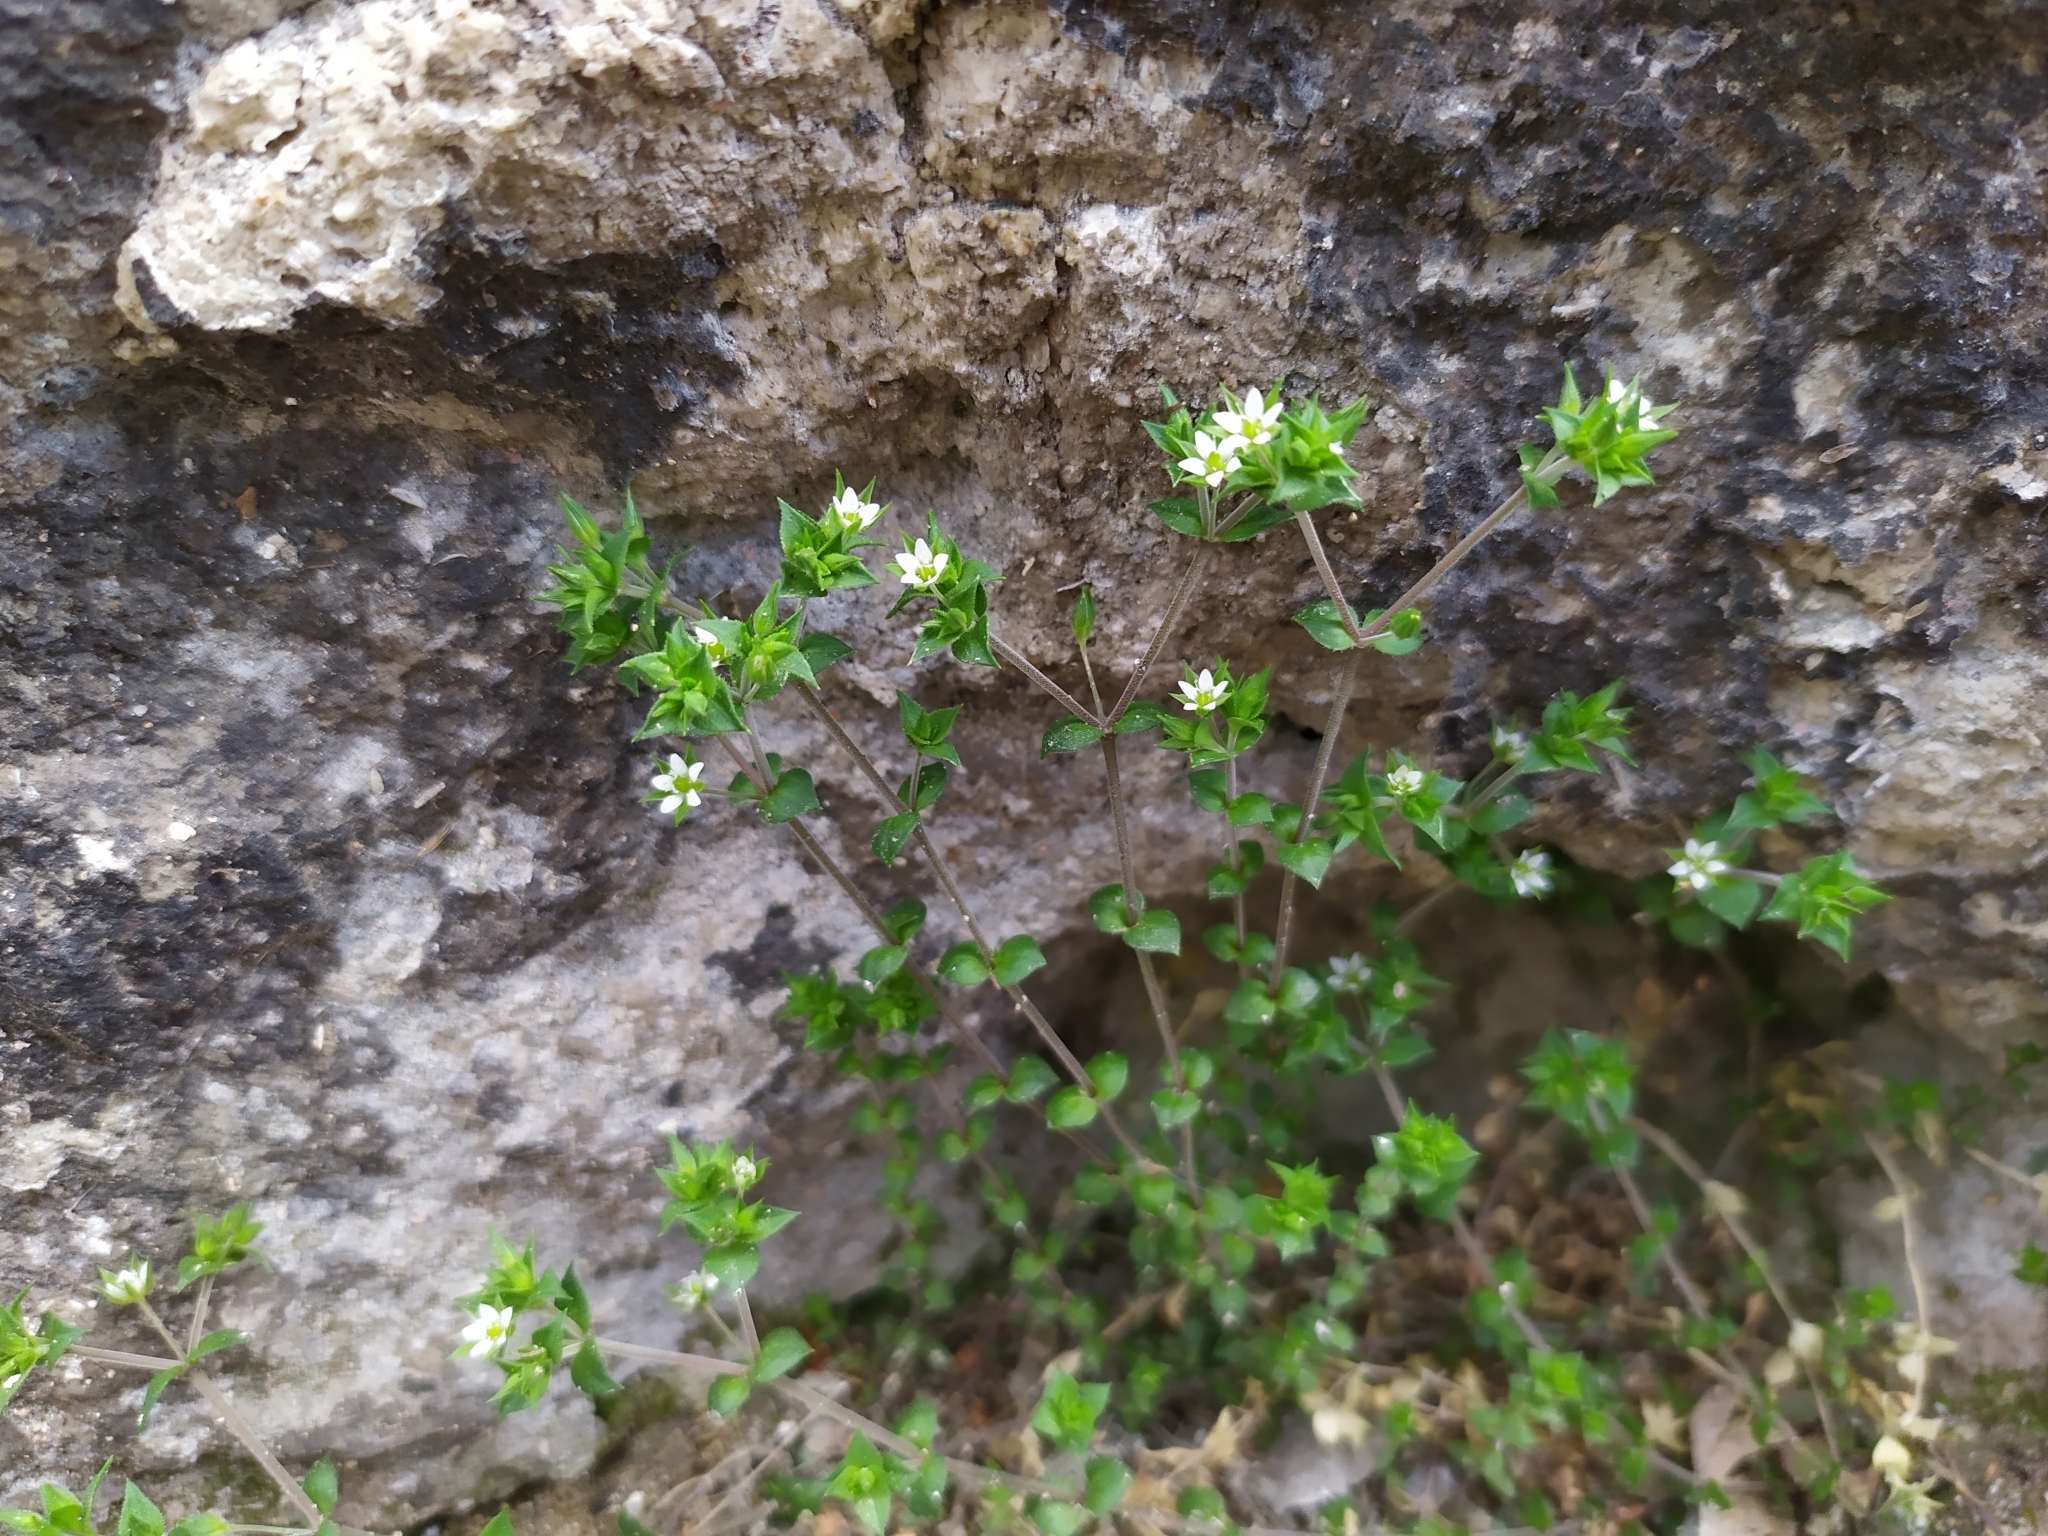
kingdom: Plantae
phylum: Tracheophyta
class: Magnoliopsida
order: Caryophyllales
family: Caryophyllaceae
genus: Arenaria
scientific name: Arenaria serpyllifolia
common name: Thyme-leaved sandwort
